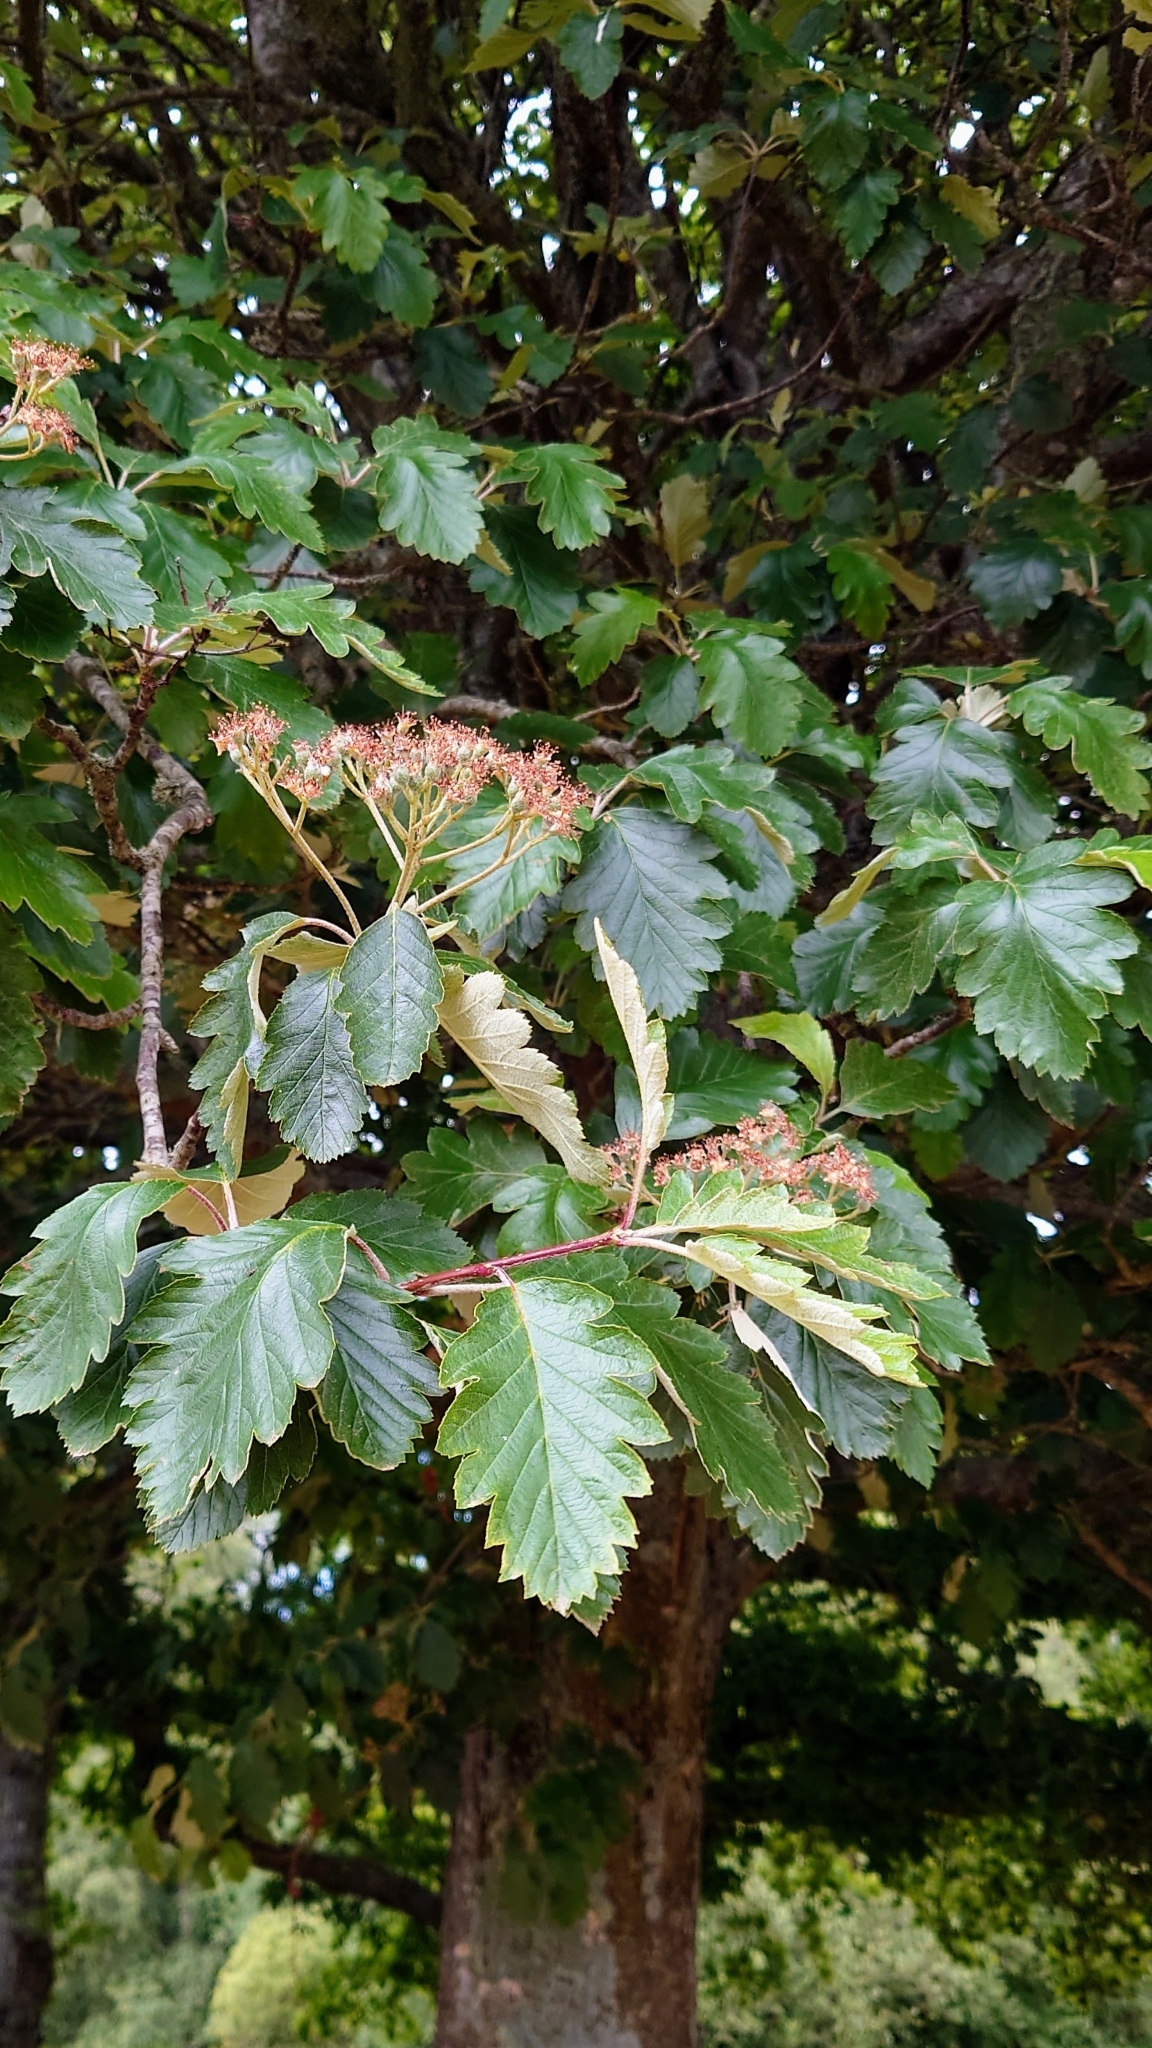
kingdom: Plantae
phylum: Tracheophyta
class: Magnoliopsida
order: Rosales
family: Rosaceae
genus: Scandosorbus
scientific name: Scandosorbus intermedia
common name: Swedish whitebeam
